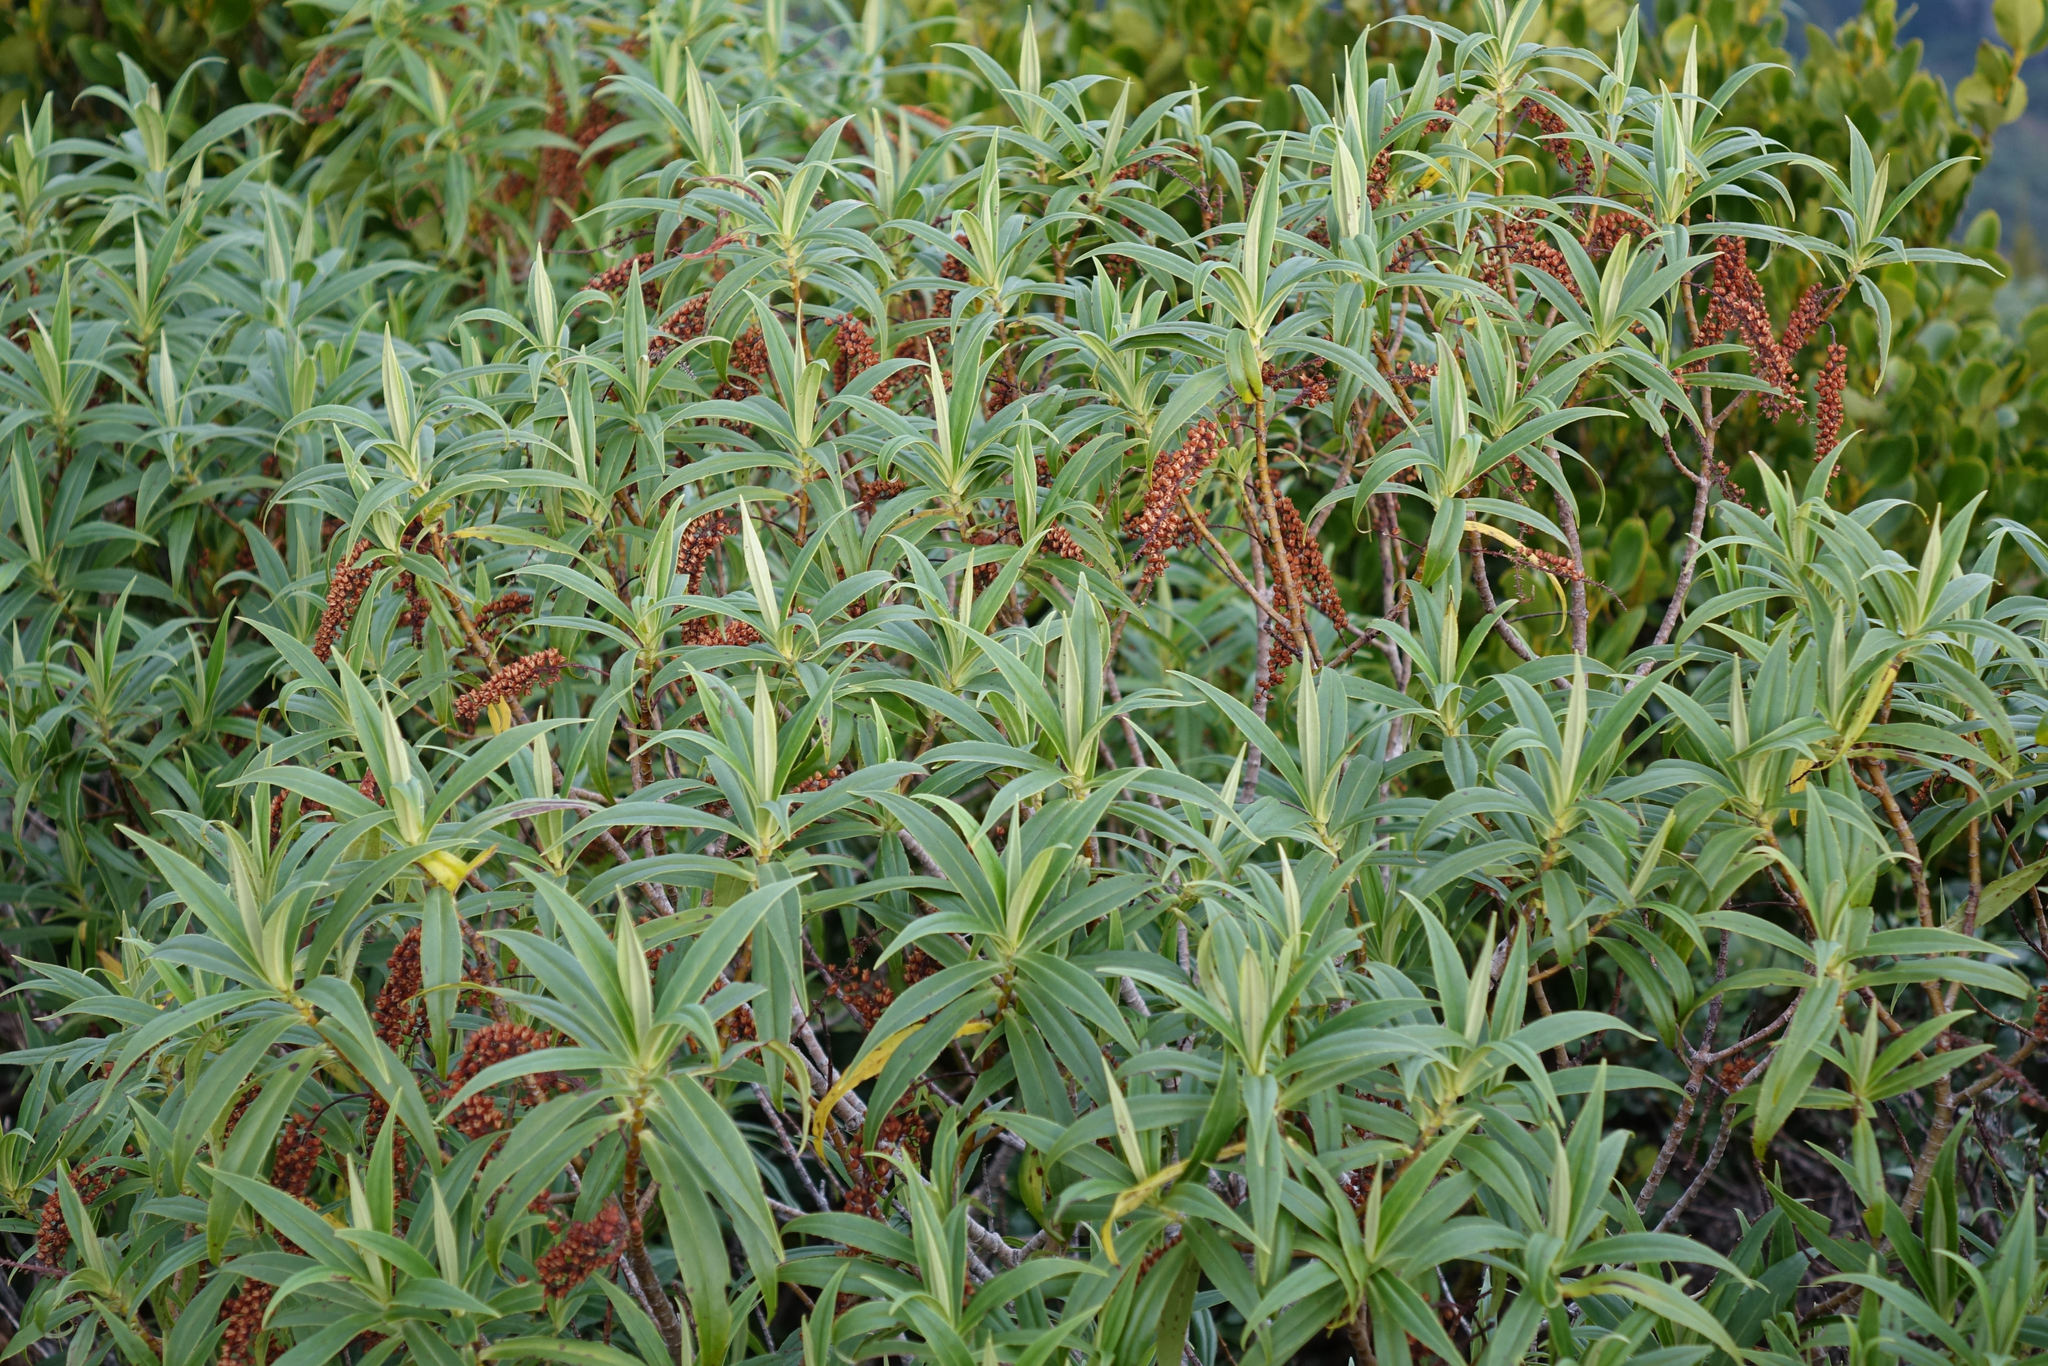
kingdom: Plantae
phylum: Tracheophyta
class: Magnoliopsida
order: Lamiales
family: Plantaginaceae
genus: Veronica
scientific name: Veronica salicifolia
